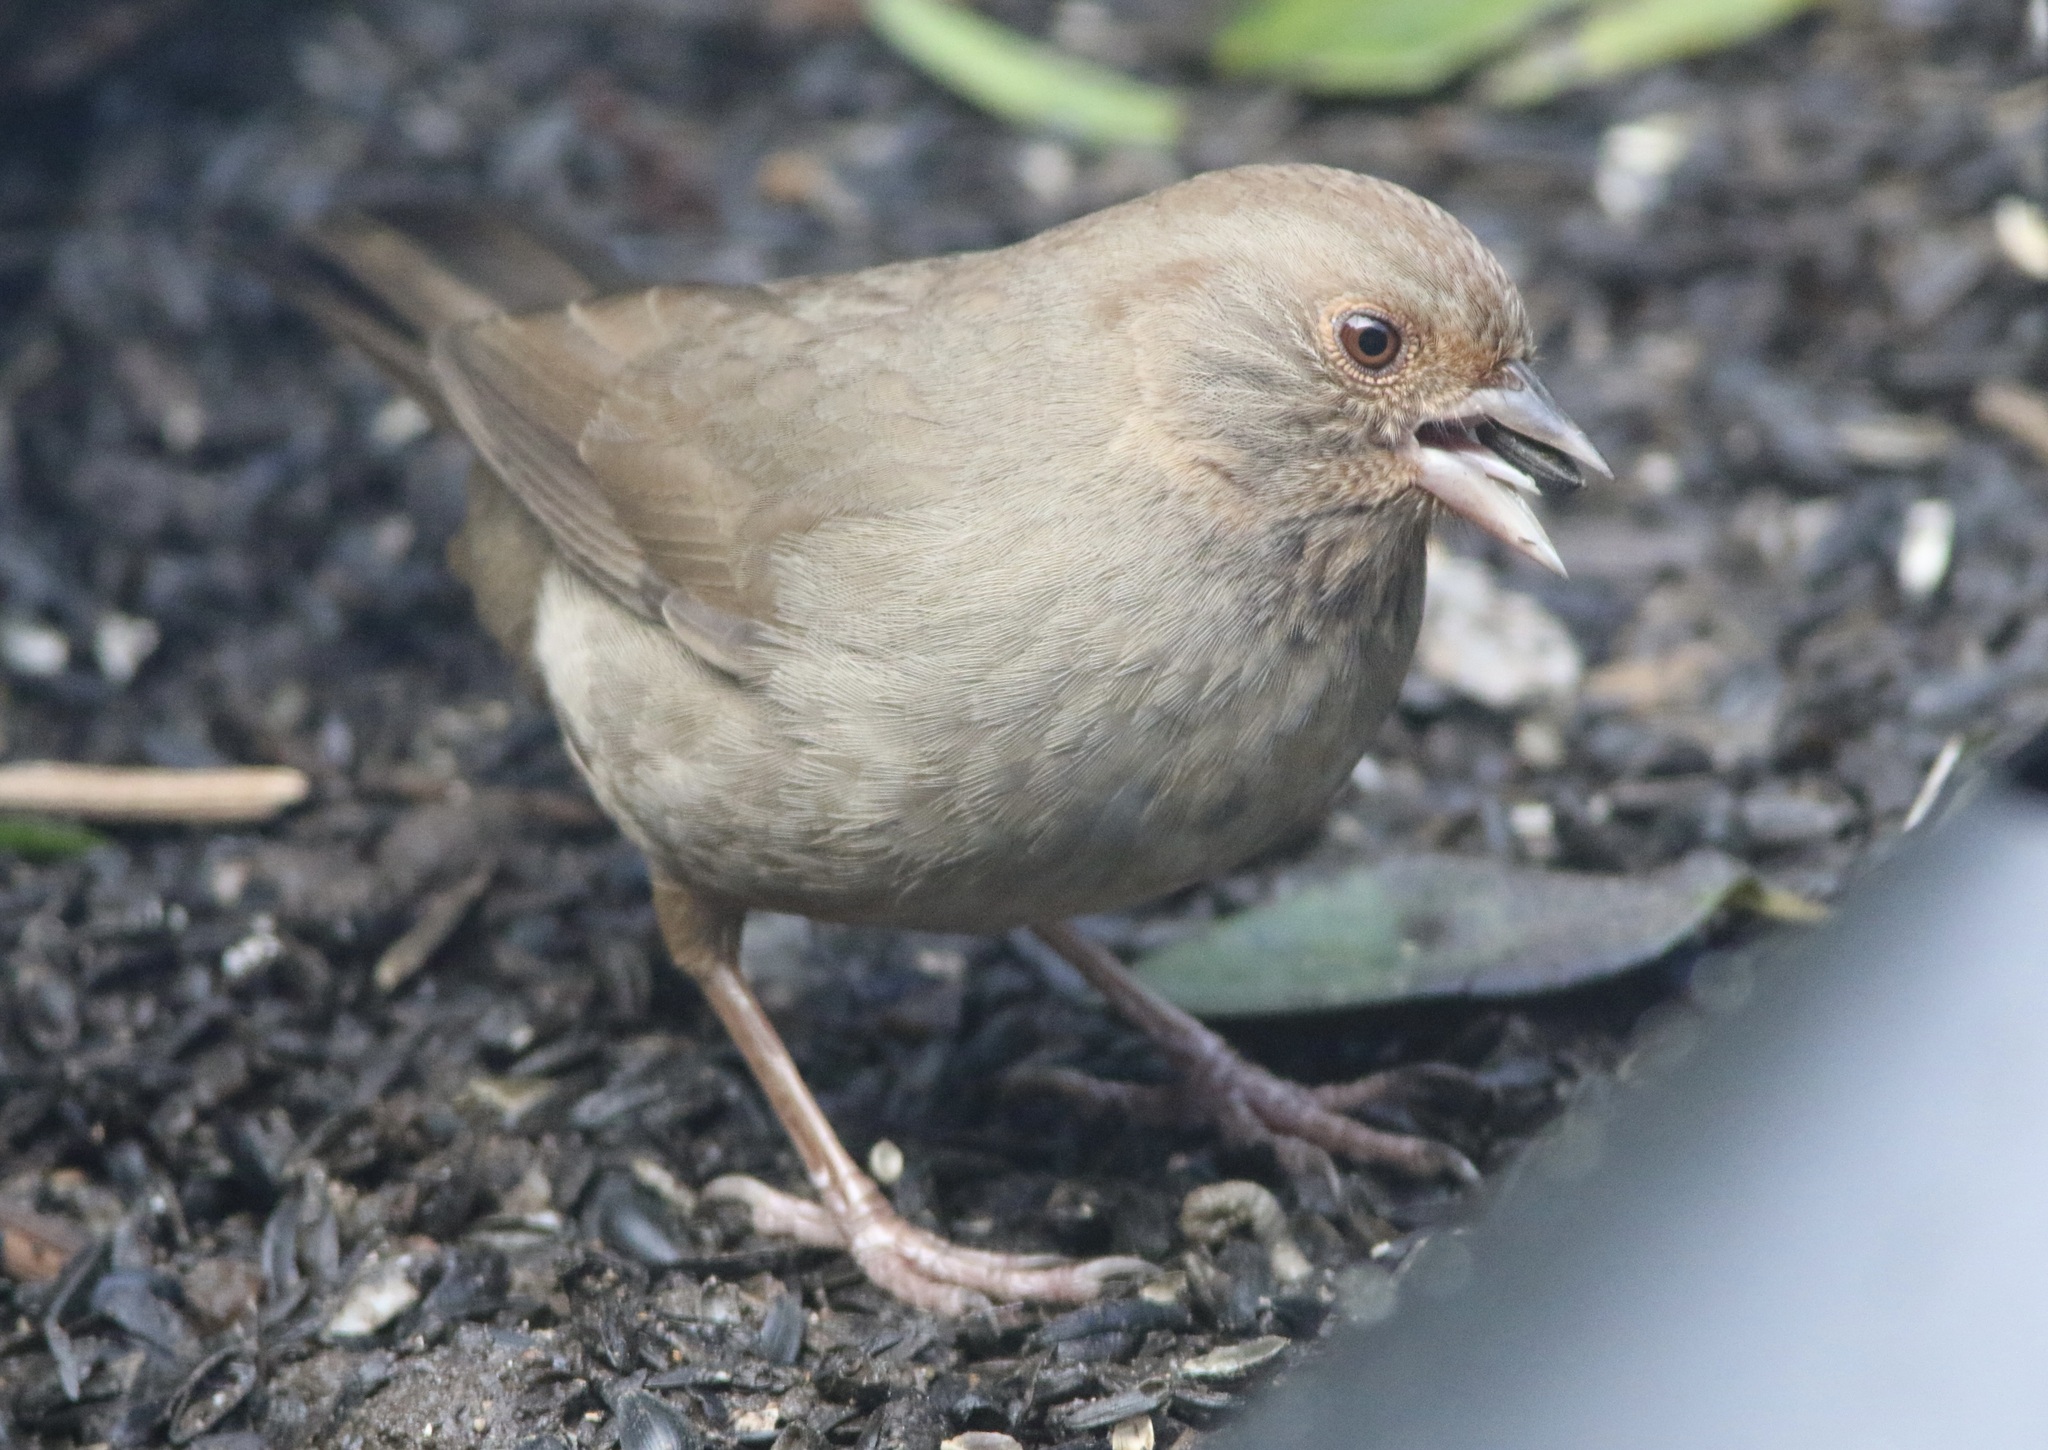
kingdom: Animalia
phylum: Chordata
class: Aves
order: Passeriformes
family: Passerellidae
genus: Melozone
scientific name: Melozone crissalis
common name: California towhee
